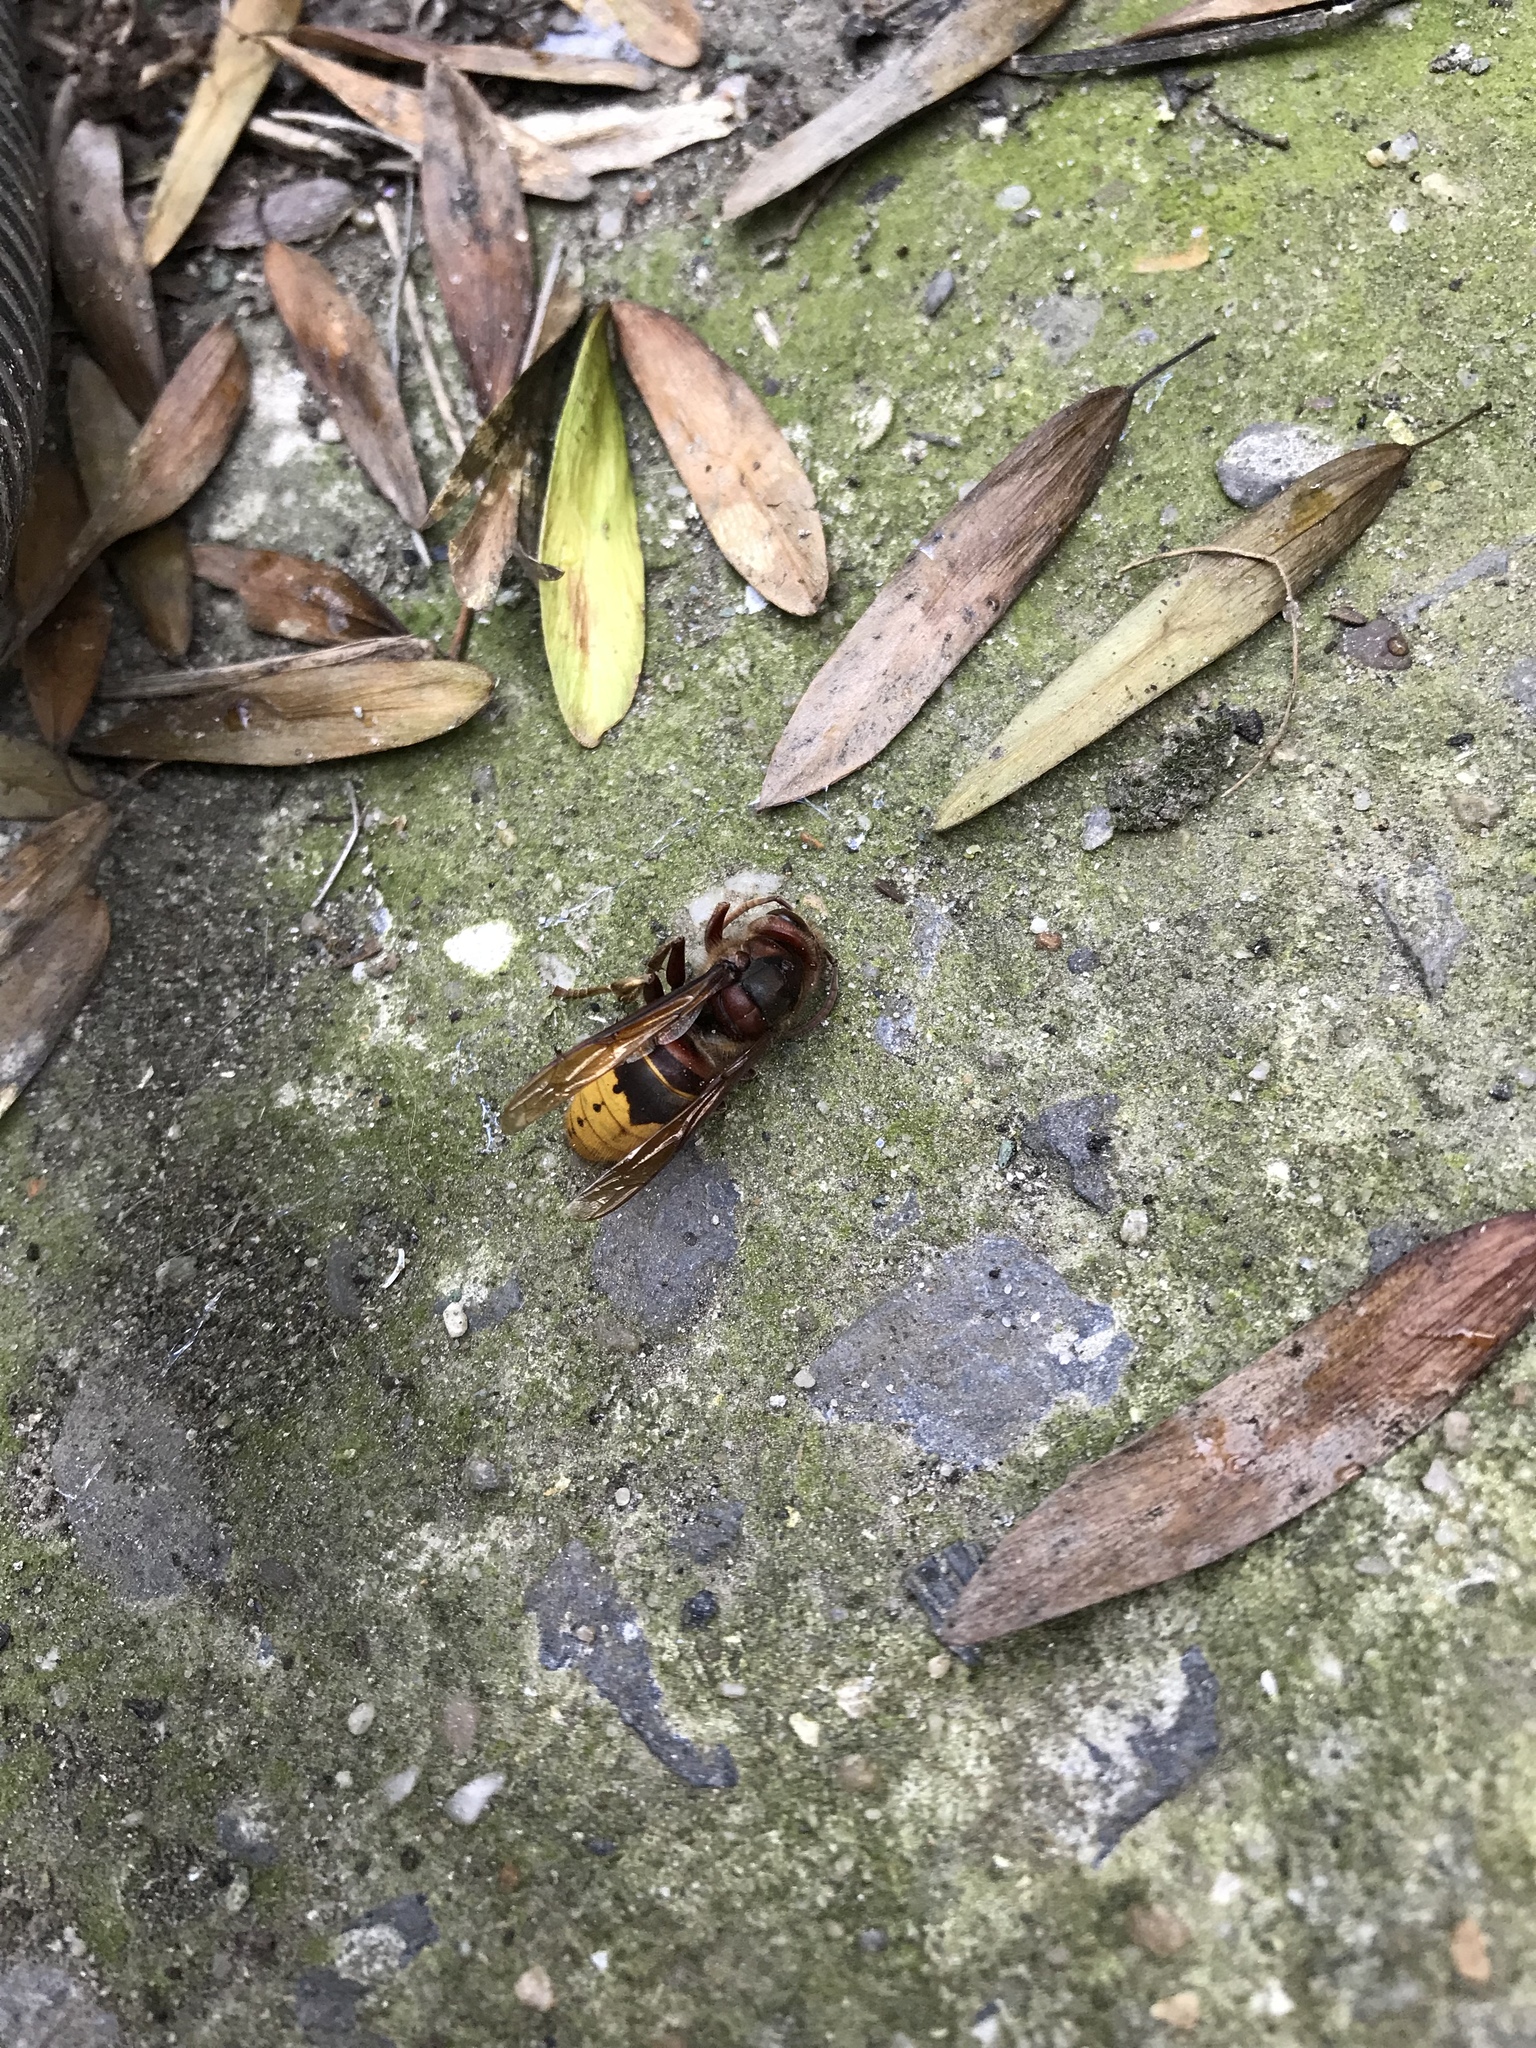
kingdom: Animalia
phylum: Arthropoda
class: Insecta
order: Hymenoptera
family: Vespidae
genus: Vespa
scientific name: Vespa crabro
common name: Hornet
